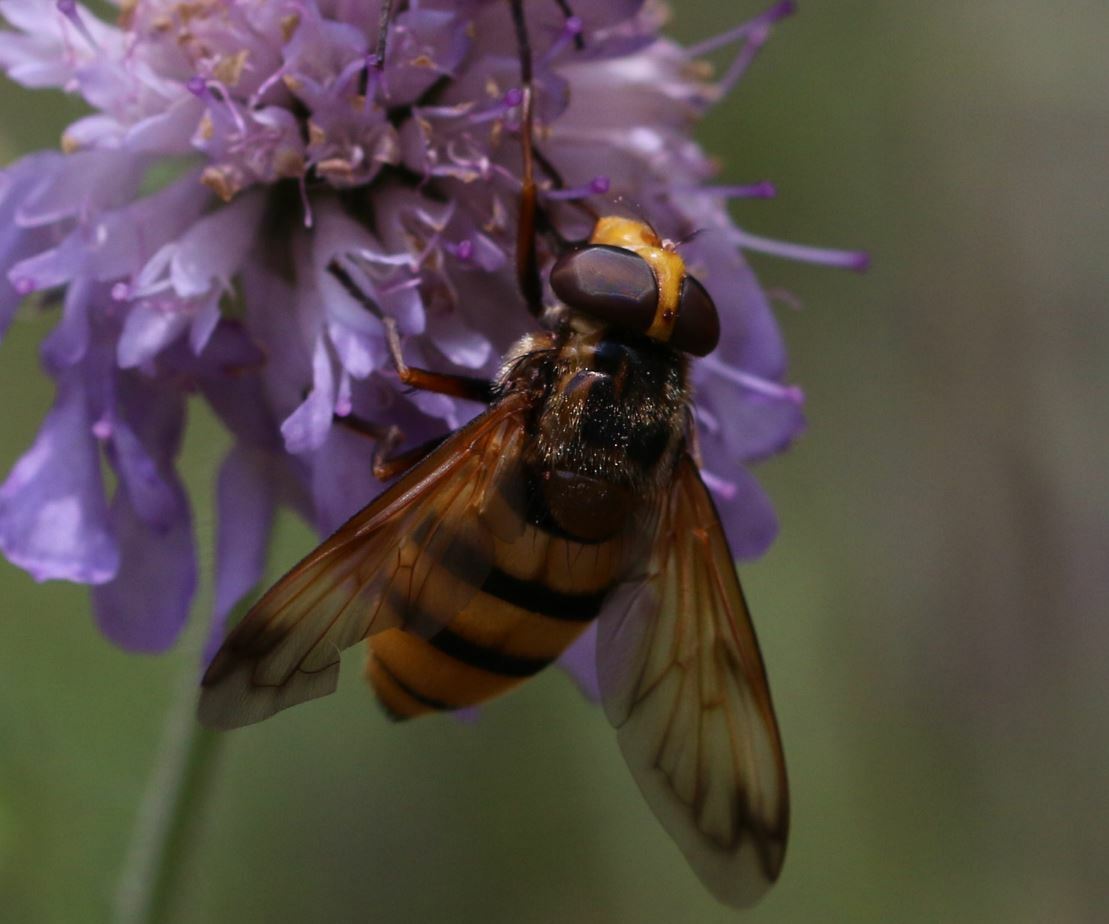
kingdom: Animalia
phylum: Arthropoda
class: Insecta
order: Diptera
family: Syrphidae
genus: Volucella
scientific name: Volucella inanis
